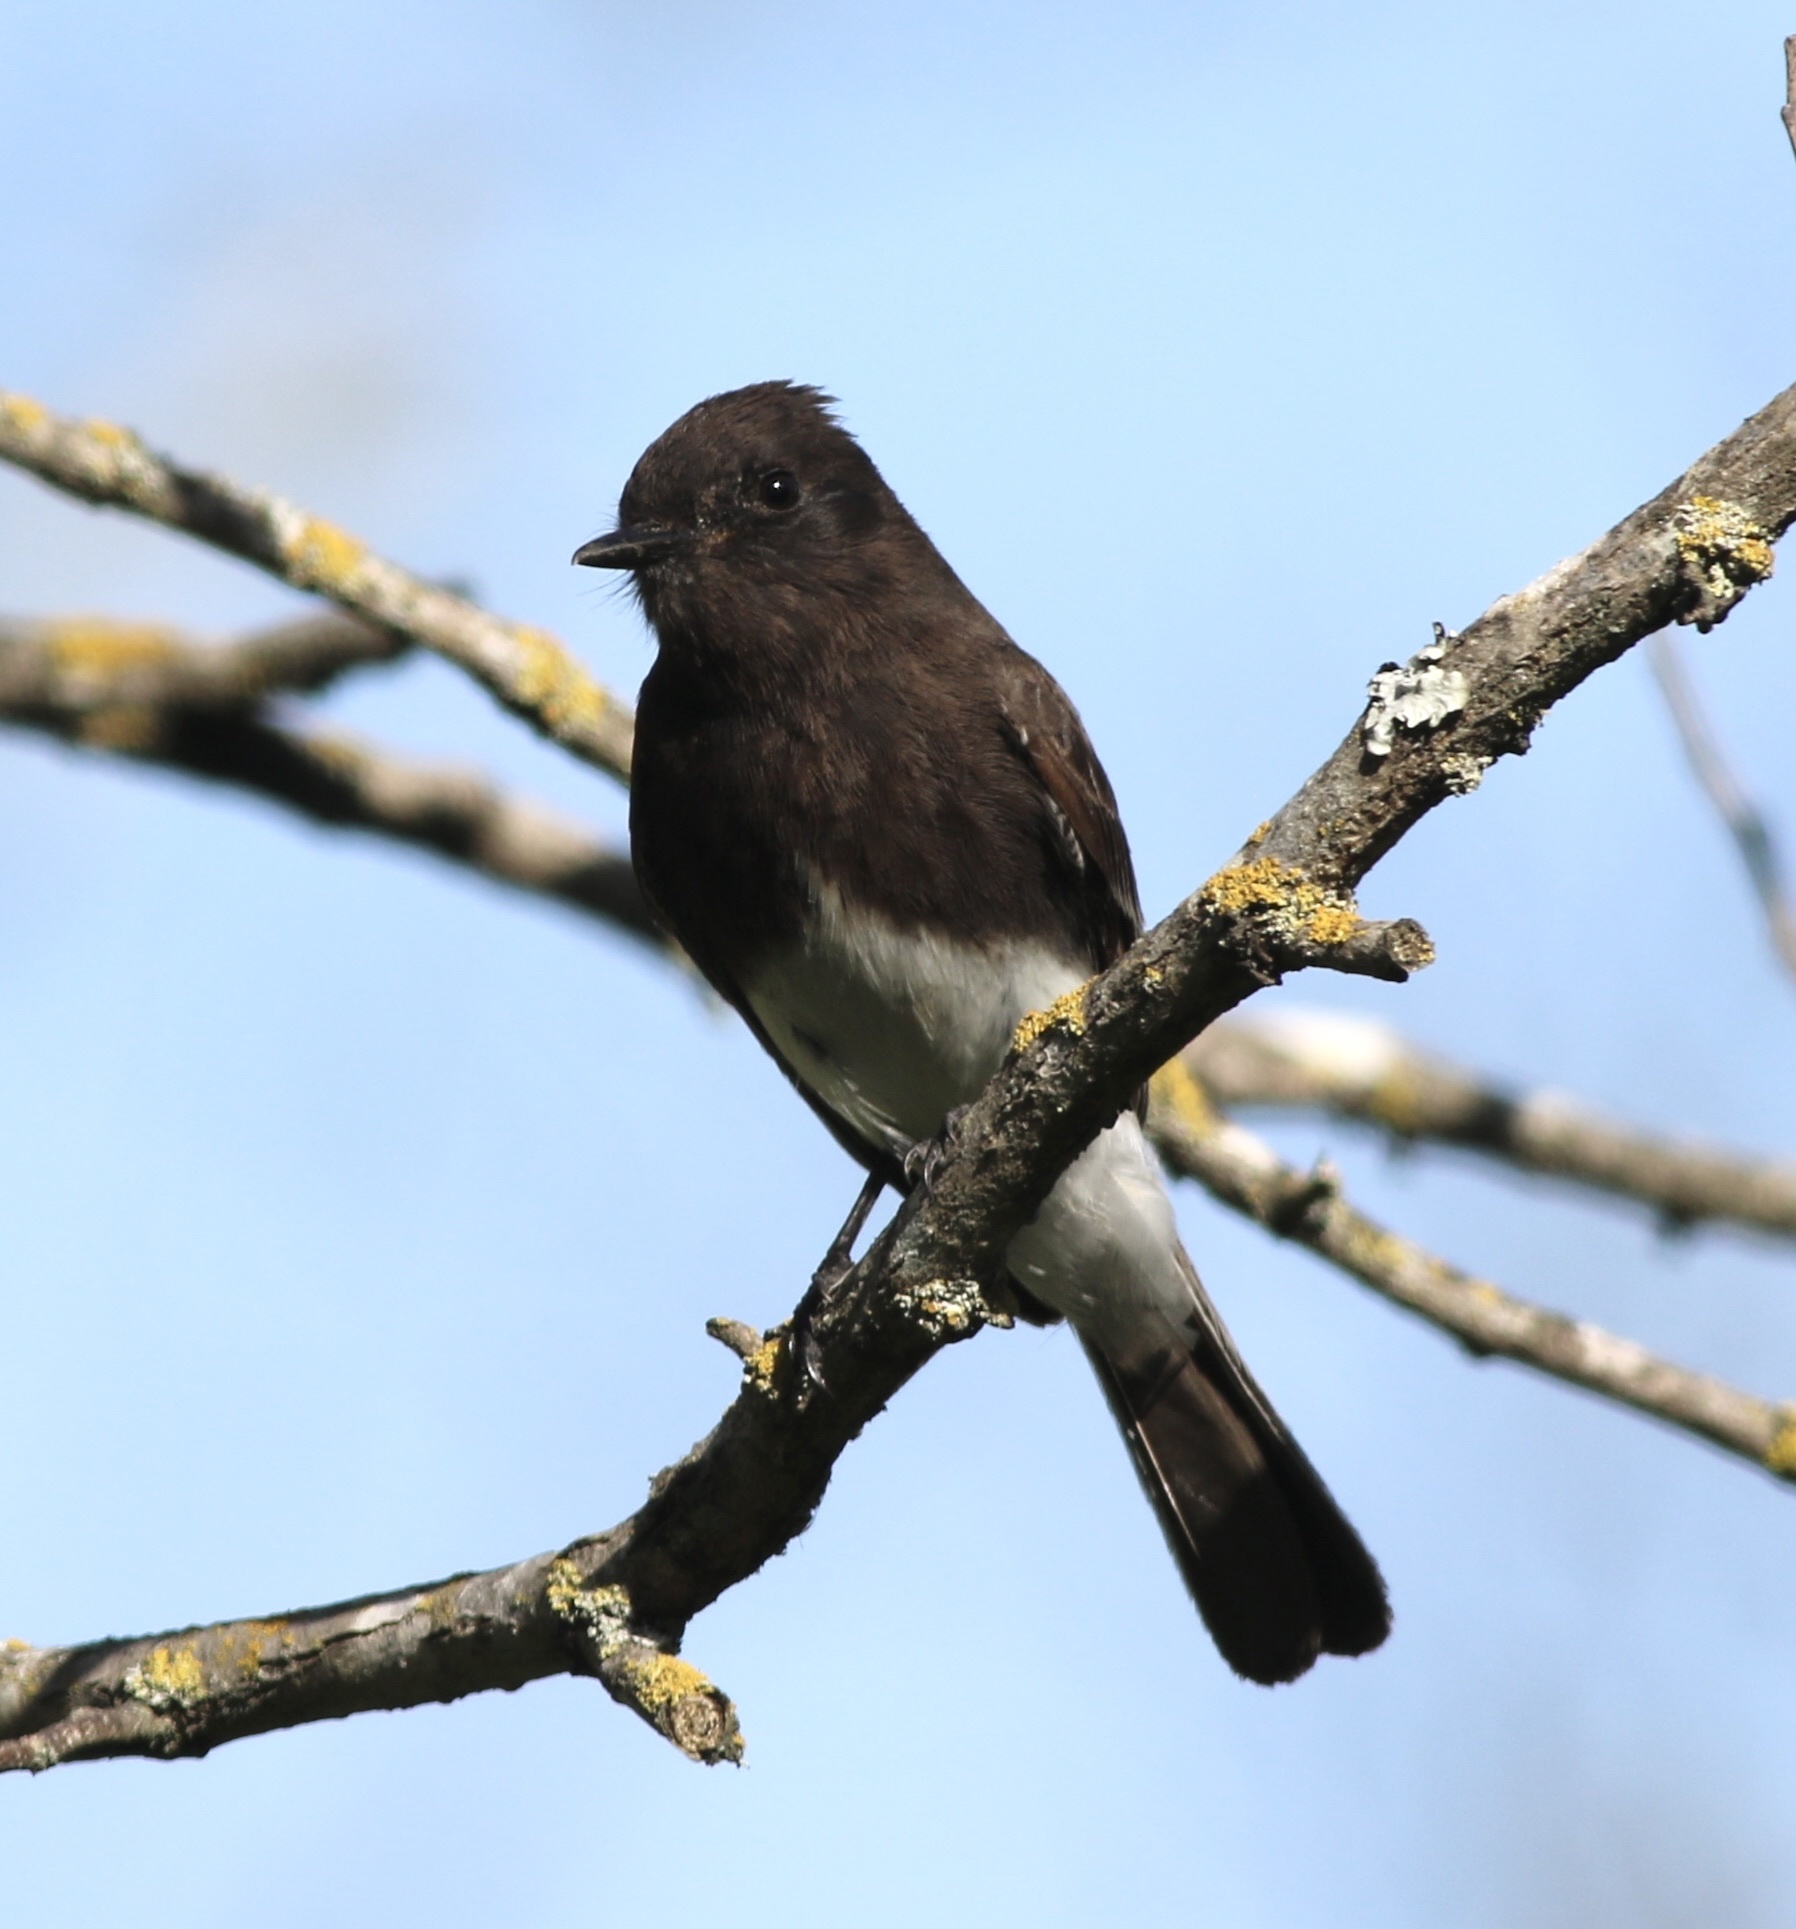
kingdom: Animalia
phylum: Chordata
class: Aves
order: Passeriformes
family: Tyrannidae
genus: Sayornis
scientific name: Sayornis nigricans
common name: Black phoebe
